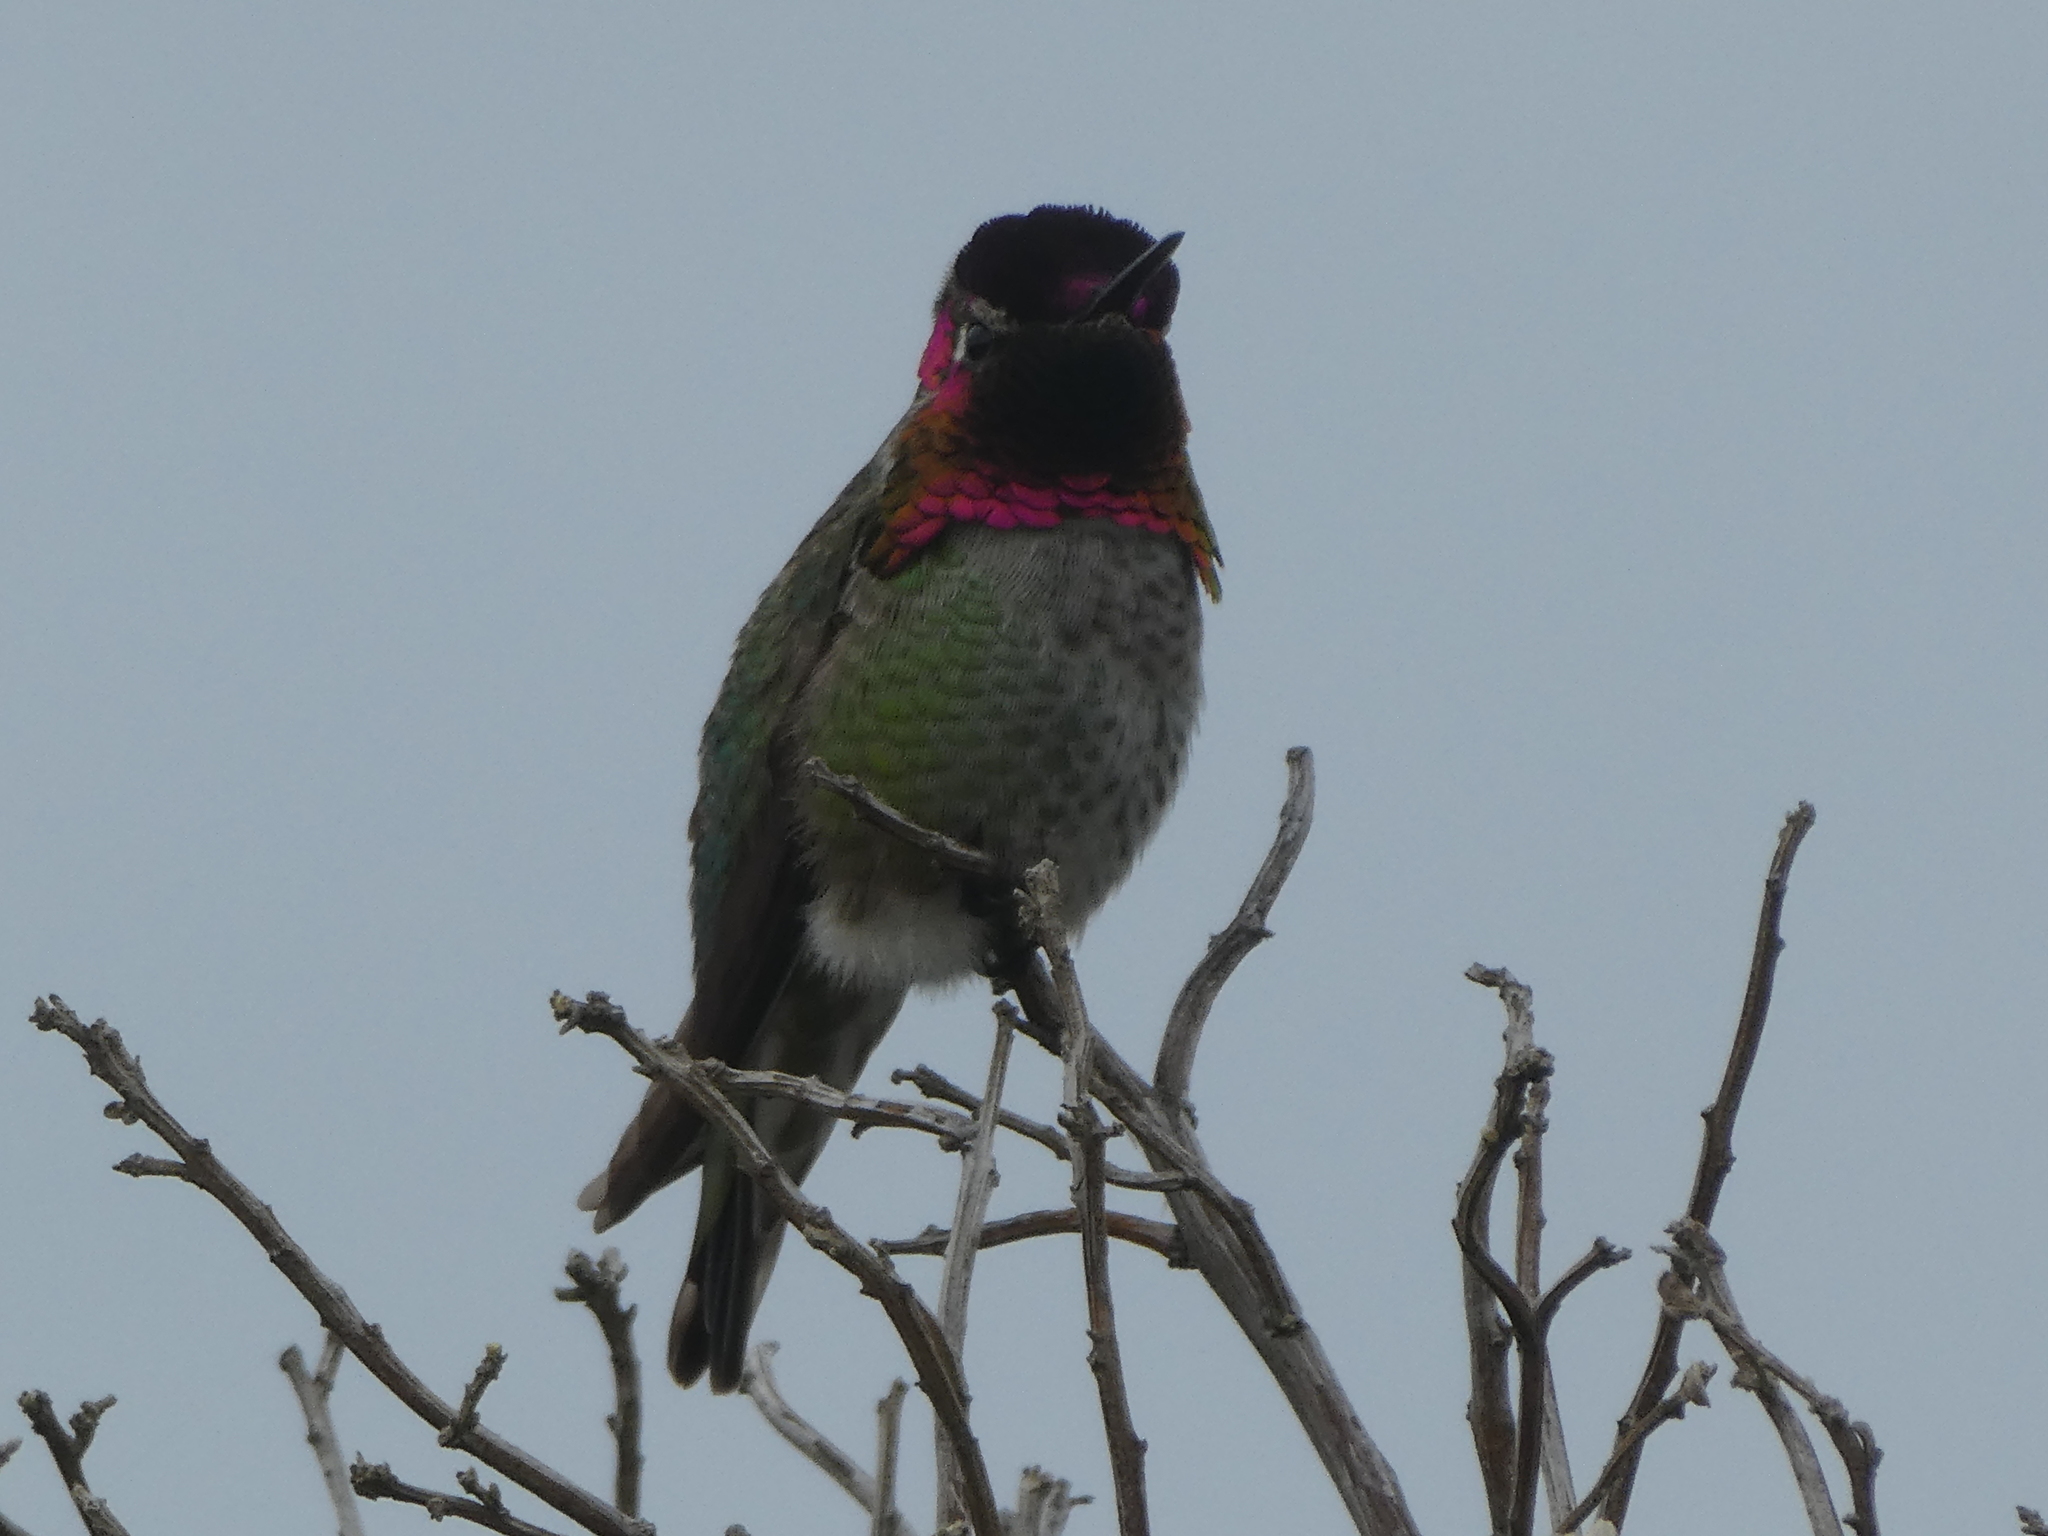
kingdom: Animalia
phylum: Chordata
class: Aves
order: Apodiformes
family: Trochilidae
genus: Calypte
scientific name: Calypte anna
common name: Anna's hummingbird
